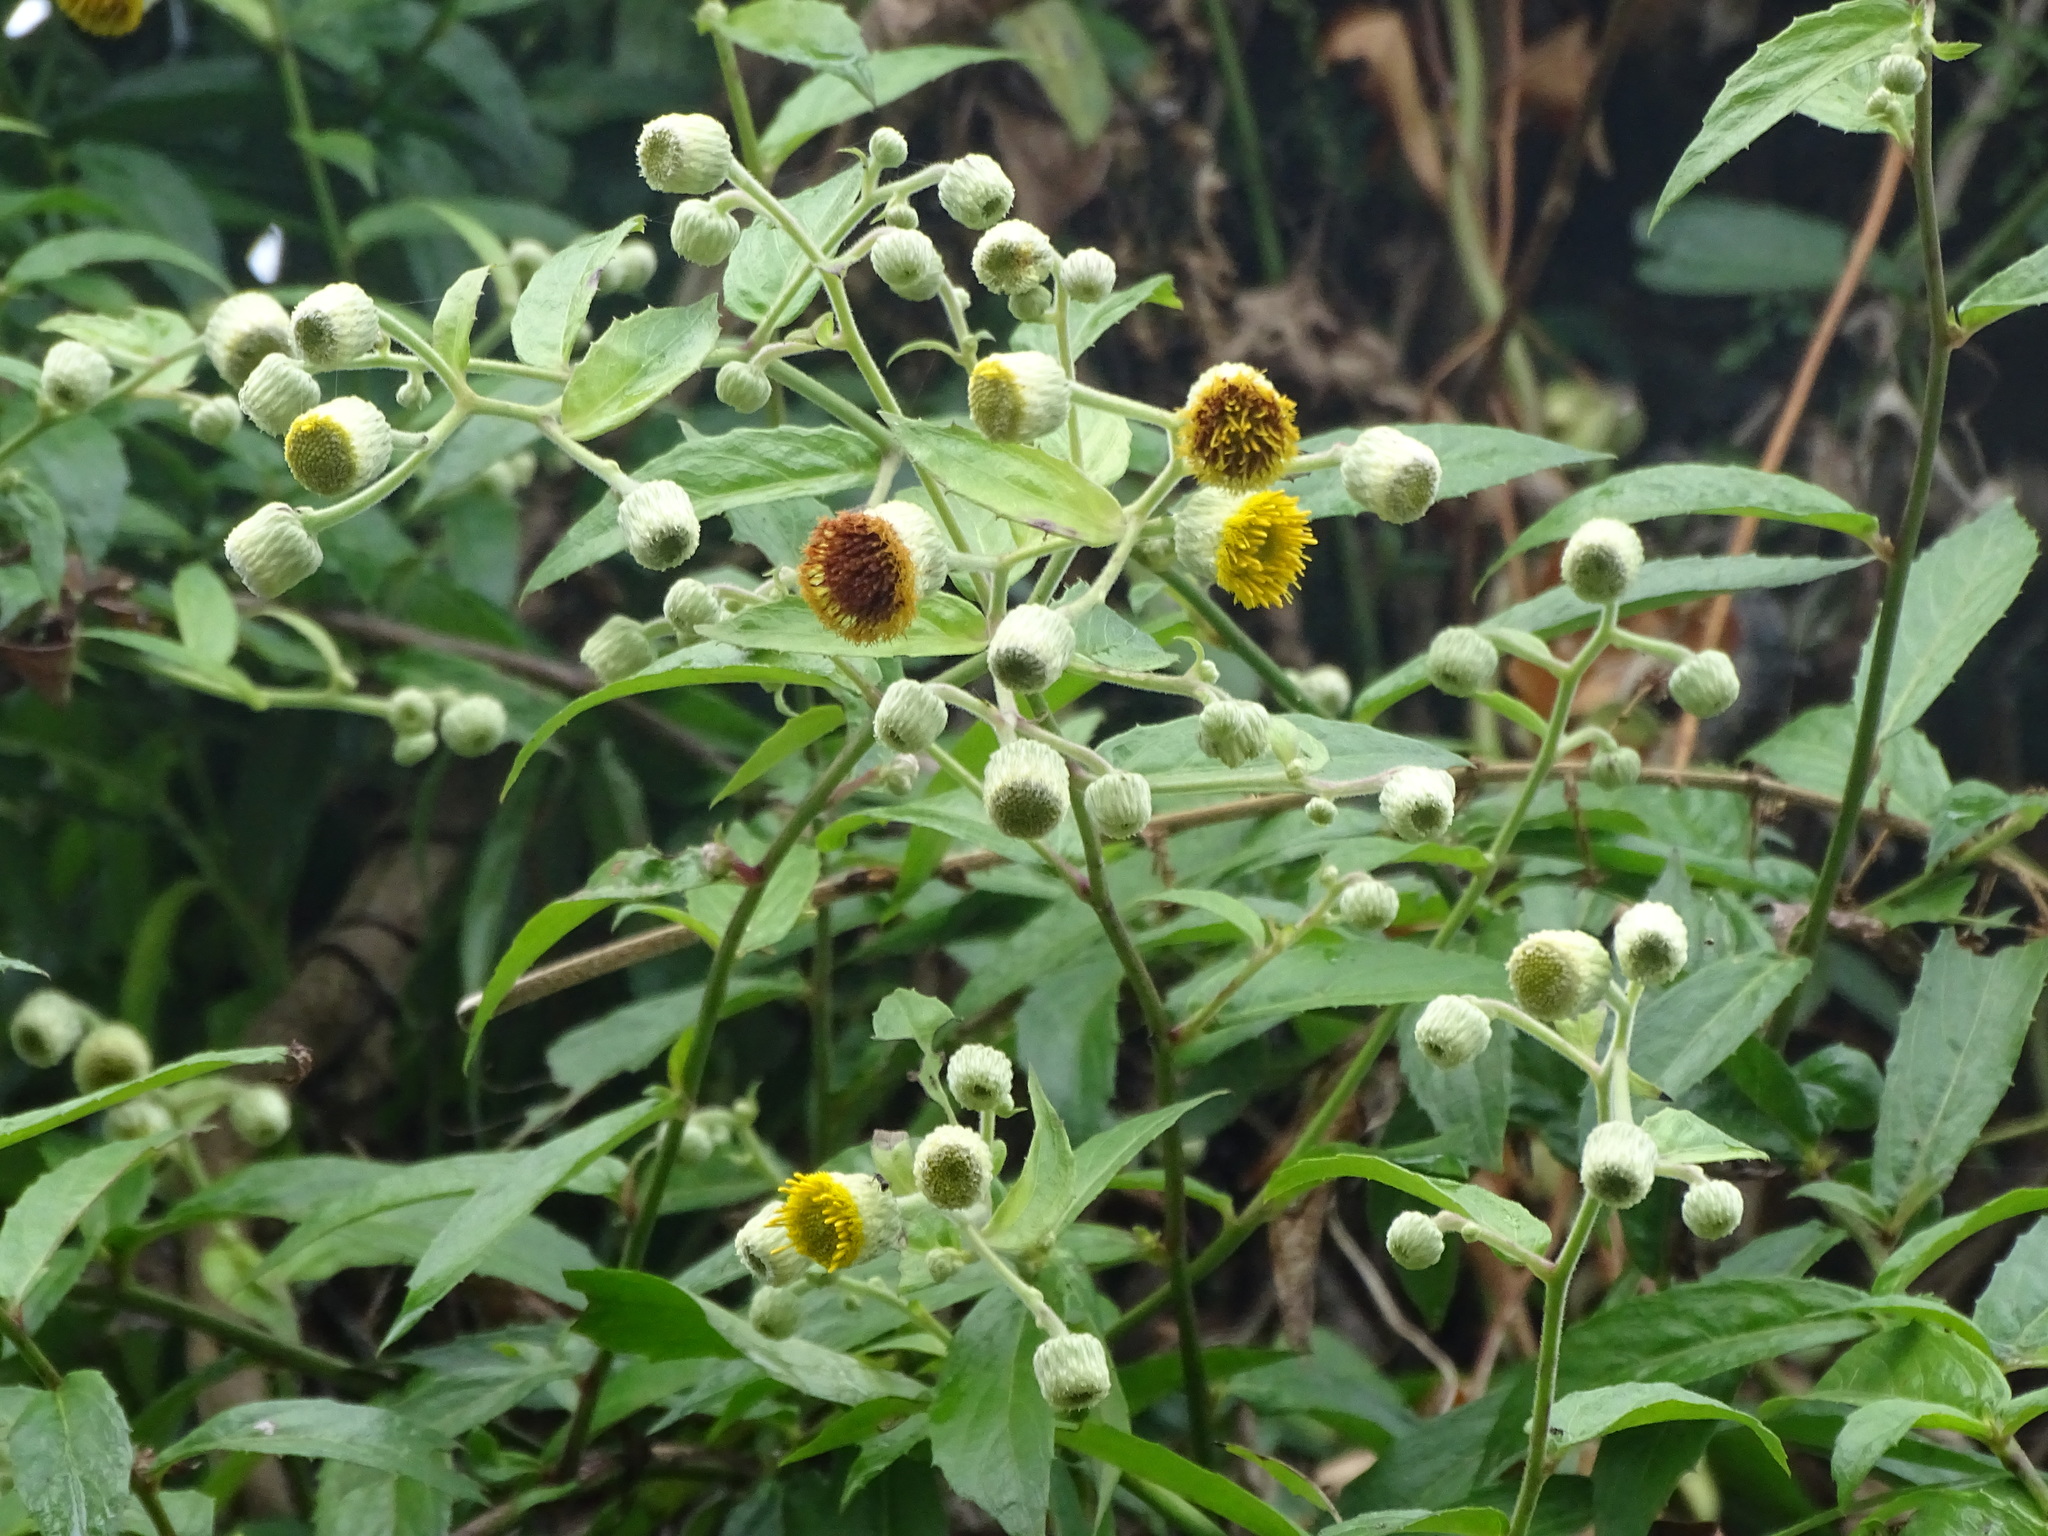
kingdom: Plantae
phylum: Tracheophyta
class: Magnoliopsida
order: Asterales
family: Asteraceae
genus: Blumea
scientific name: Blumea megacephala
